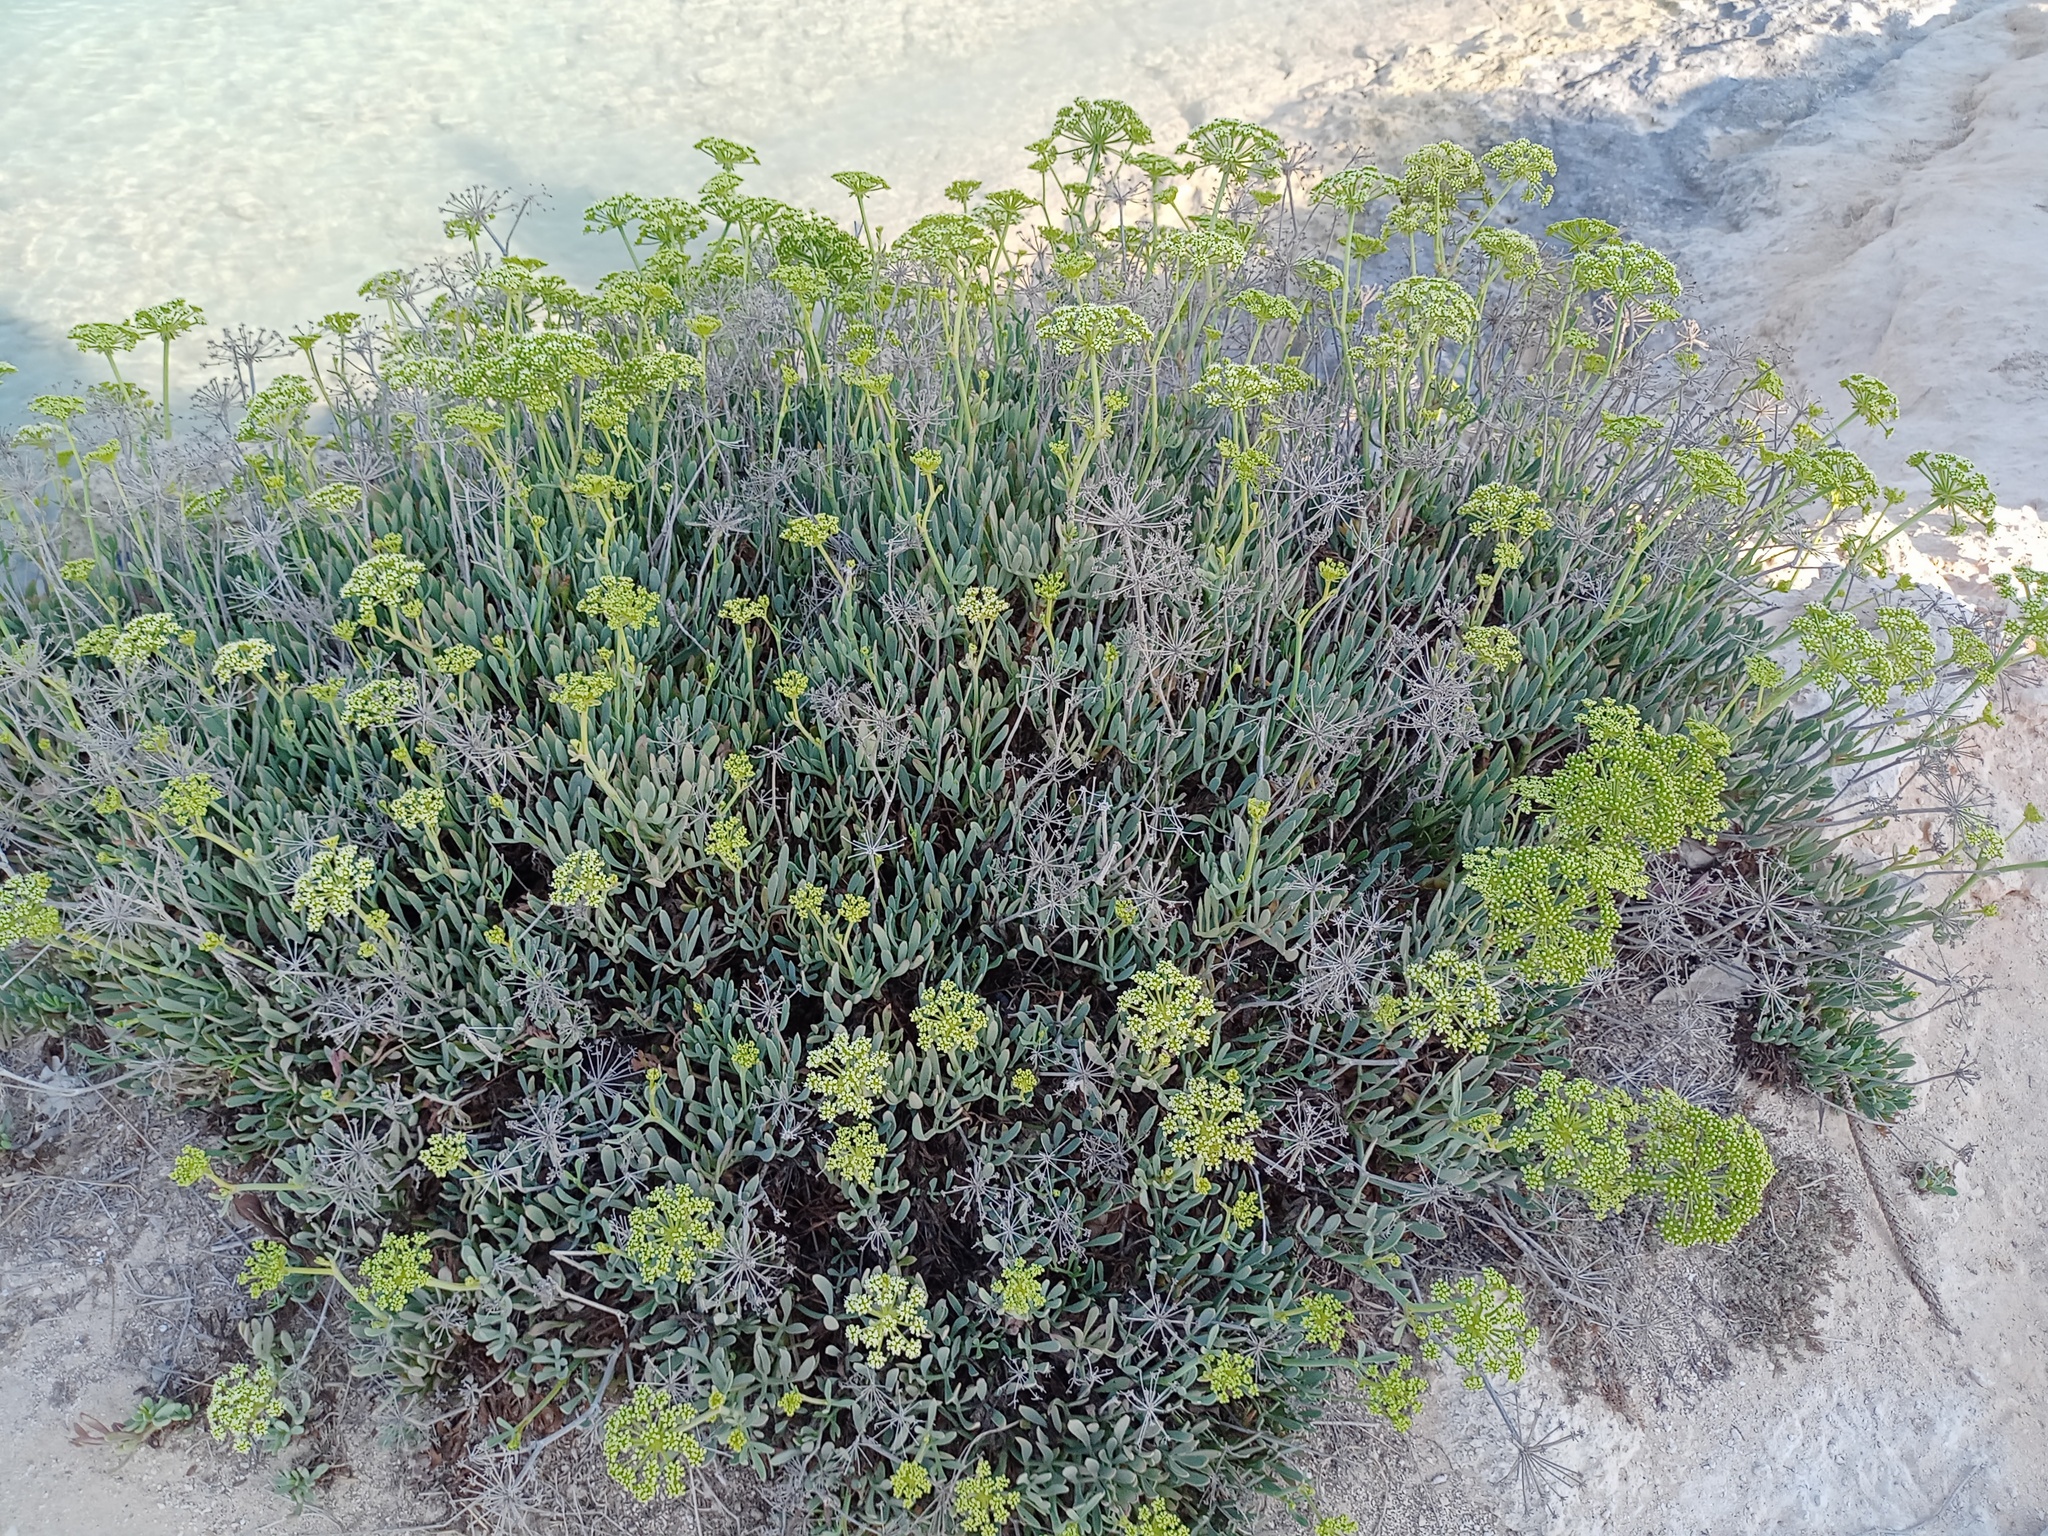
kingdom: Plantae
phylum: Tracheophyta
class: Magnoliopsida
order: Apiales
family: Apiaceae
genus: Crithmum
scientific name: Crithmum maritimum
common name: Rock samphire
